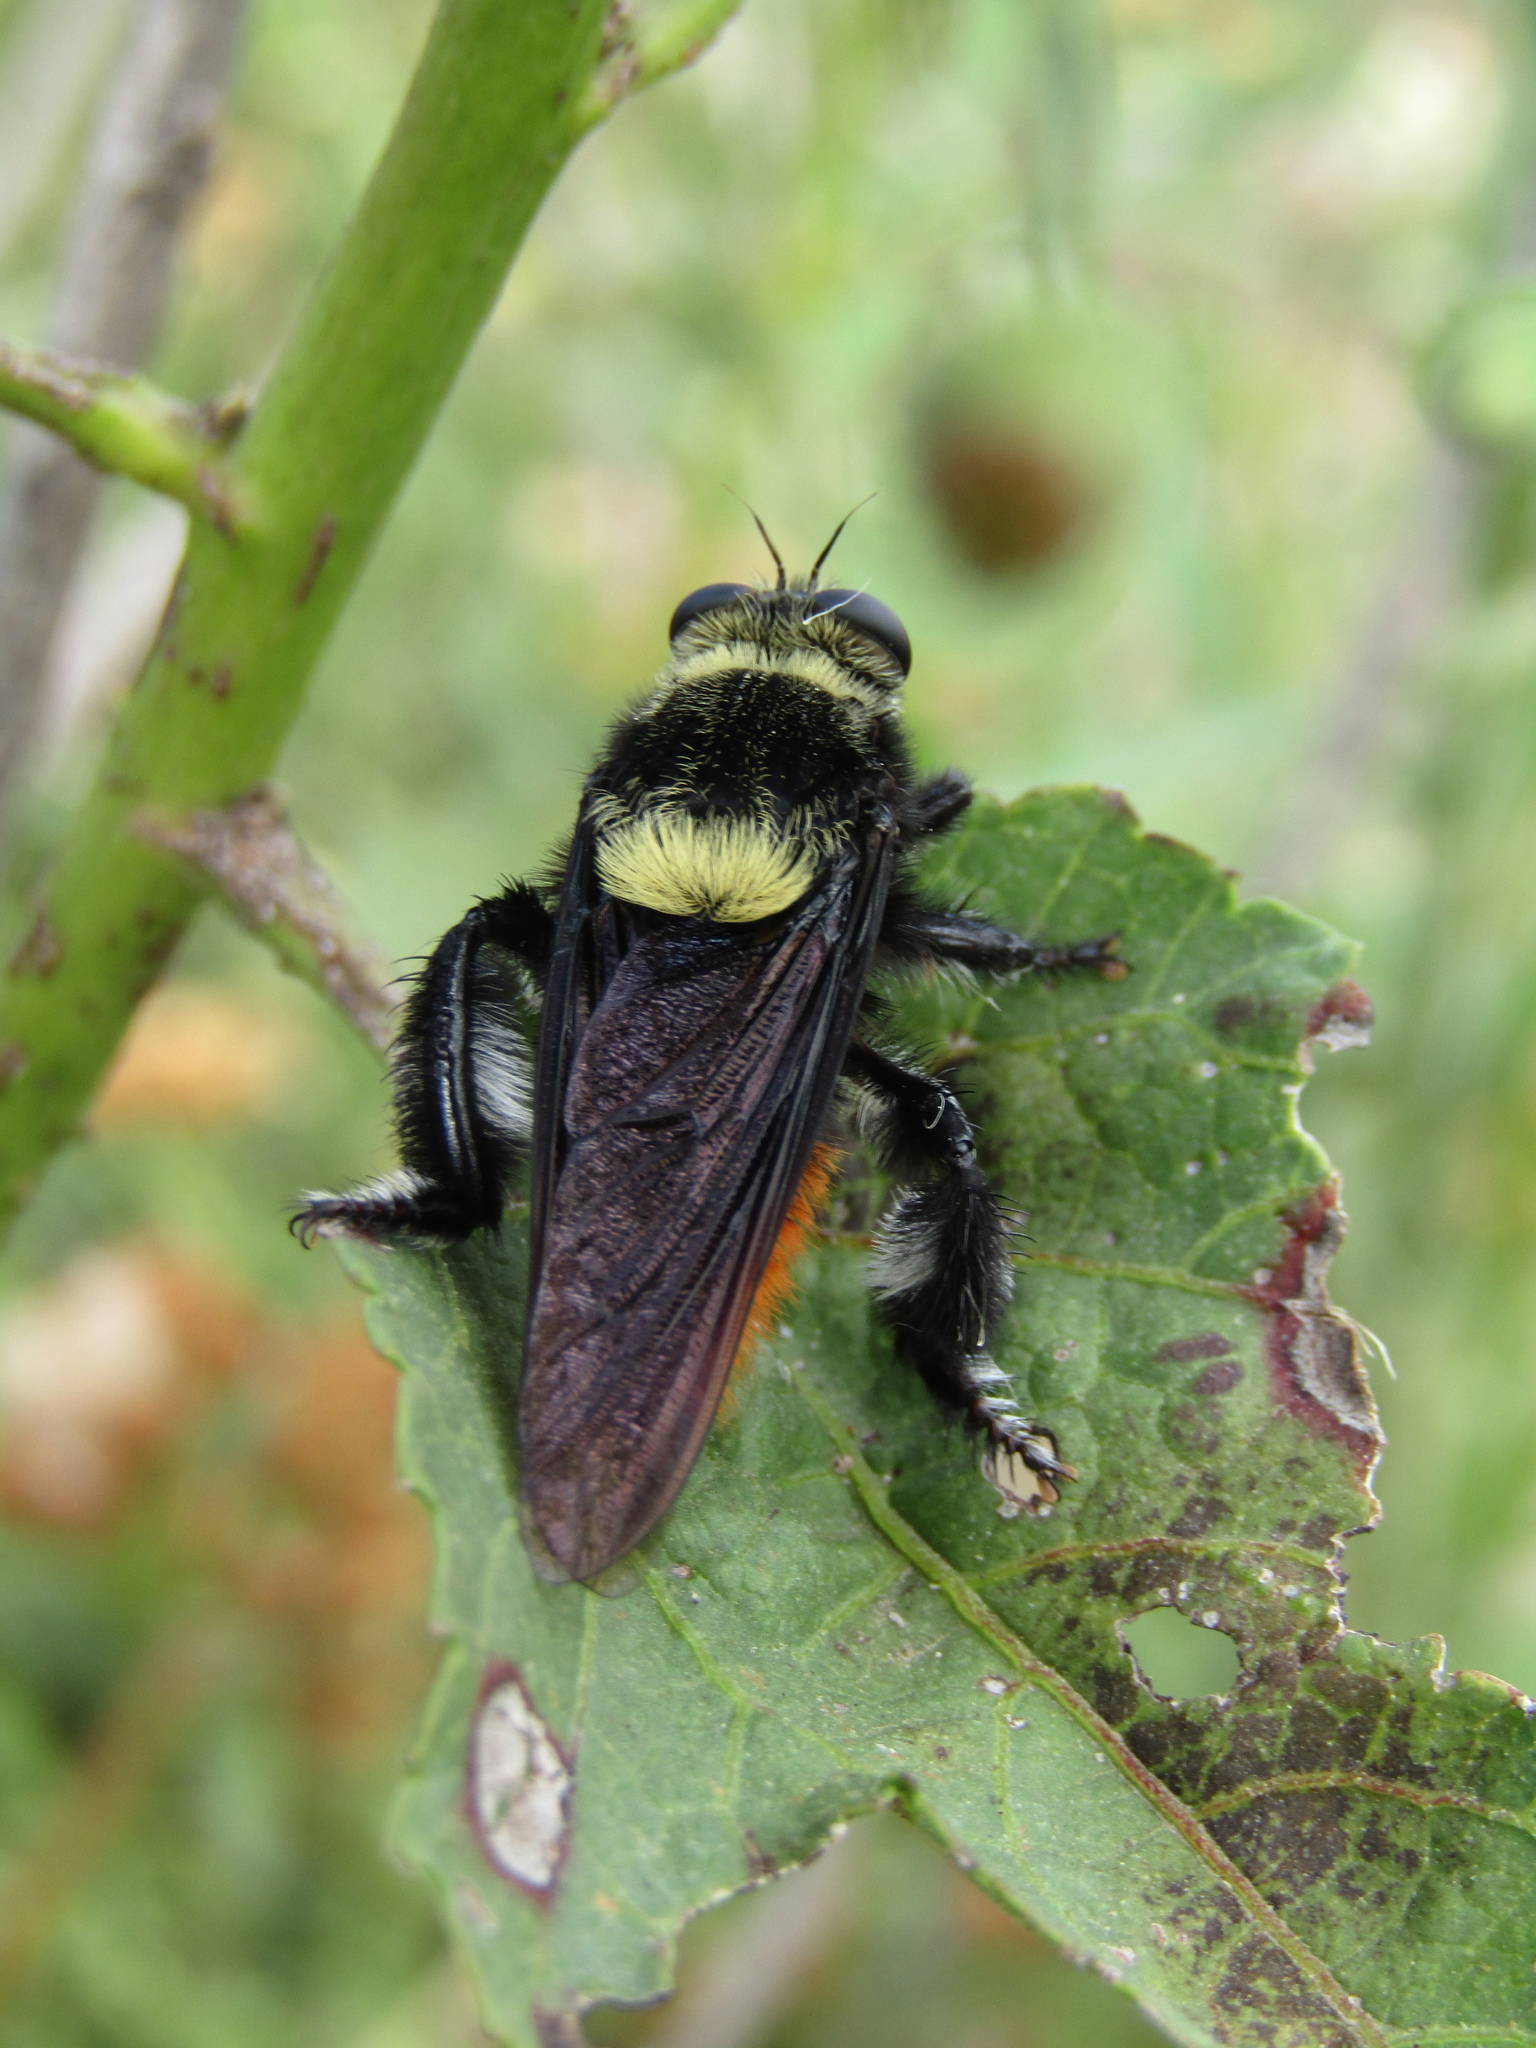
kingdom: Animalia
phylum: Arthropoda
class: Insecta
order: Diptera
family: Asilidae
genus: Mallophora
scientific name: Mallophora ruficauda
